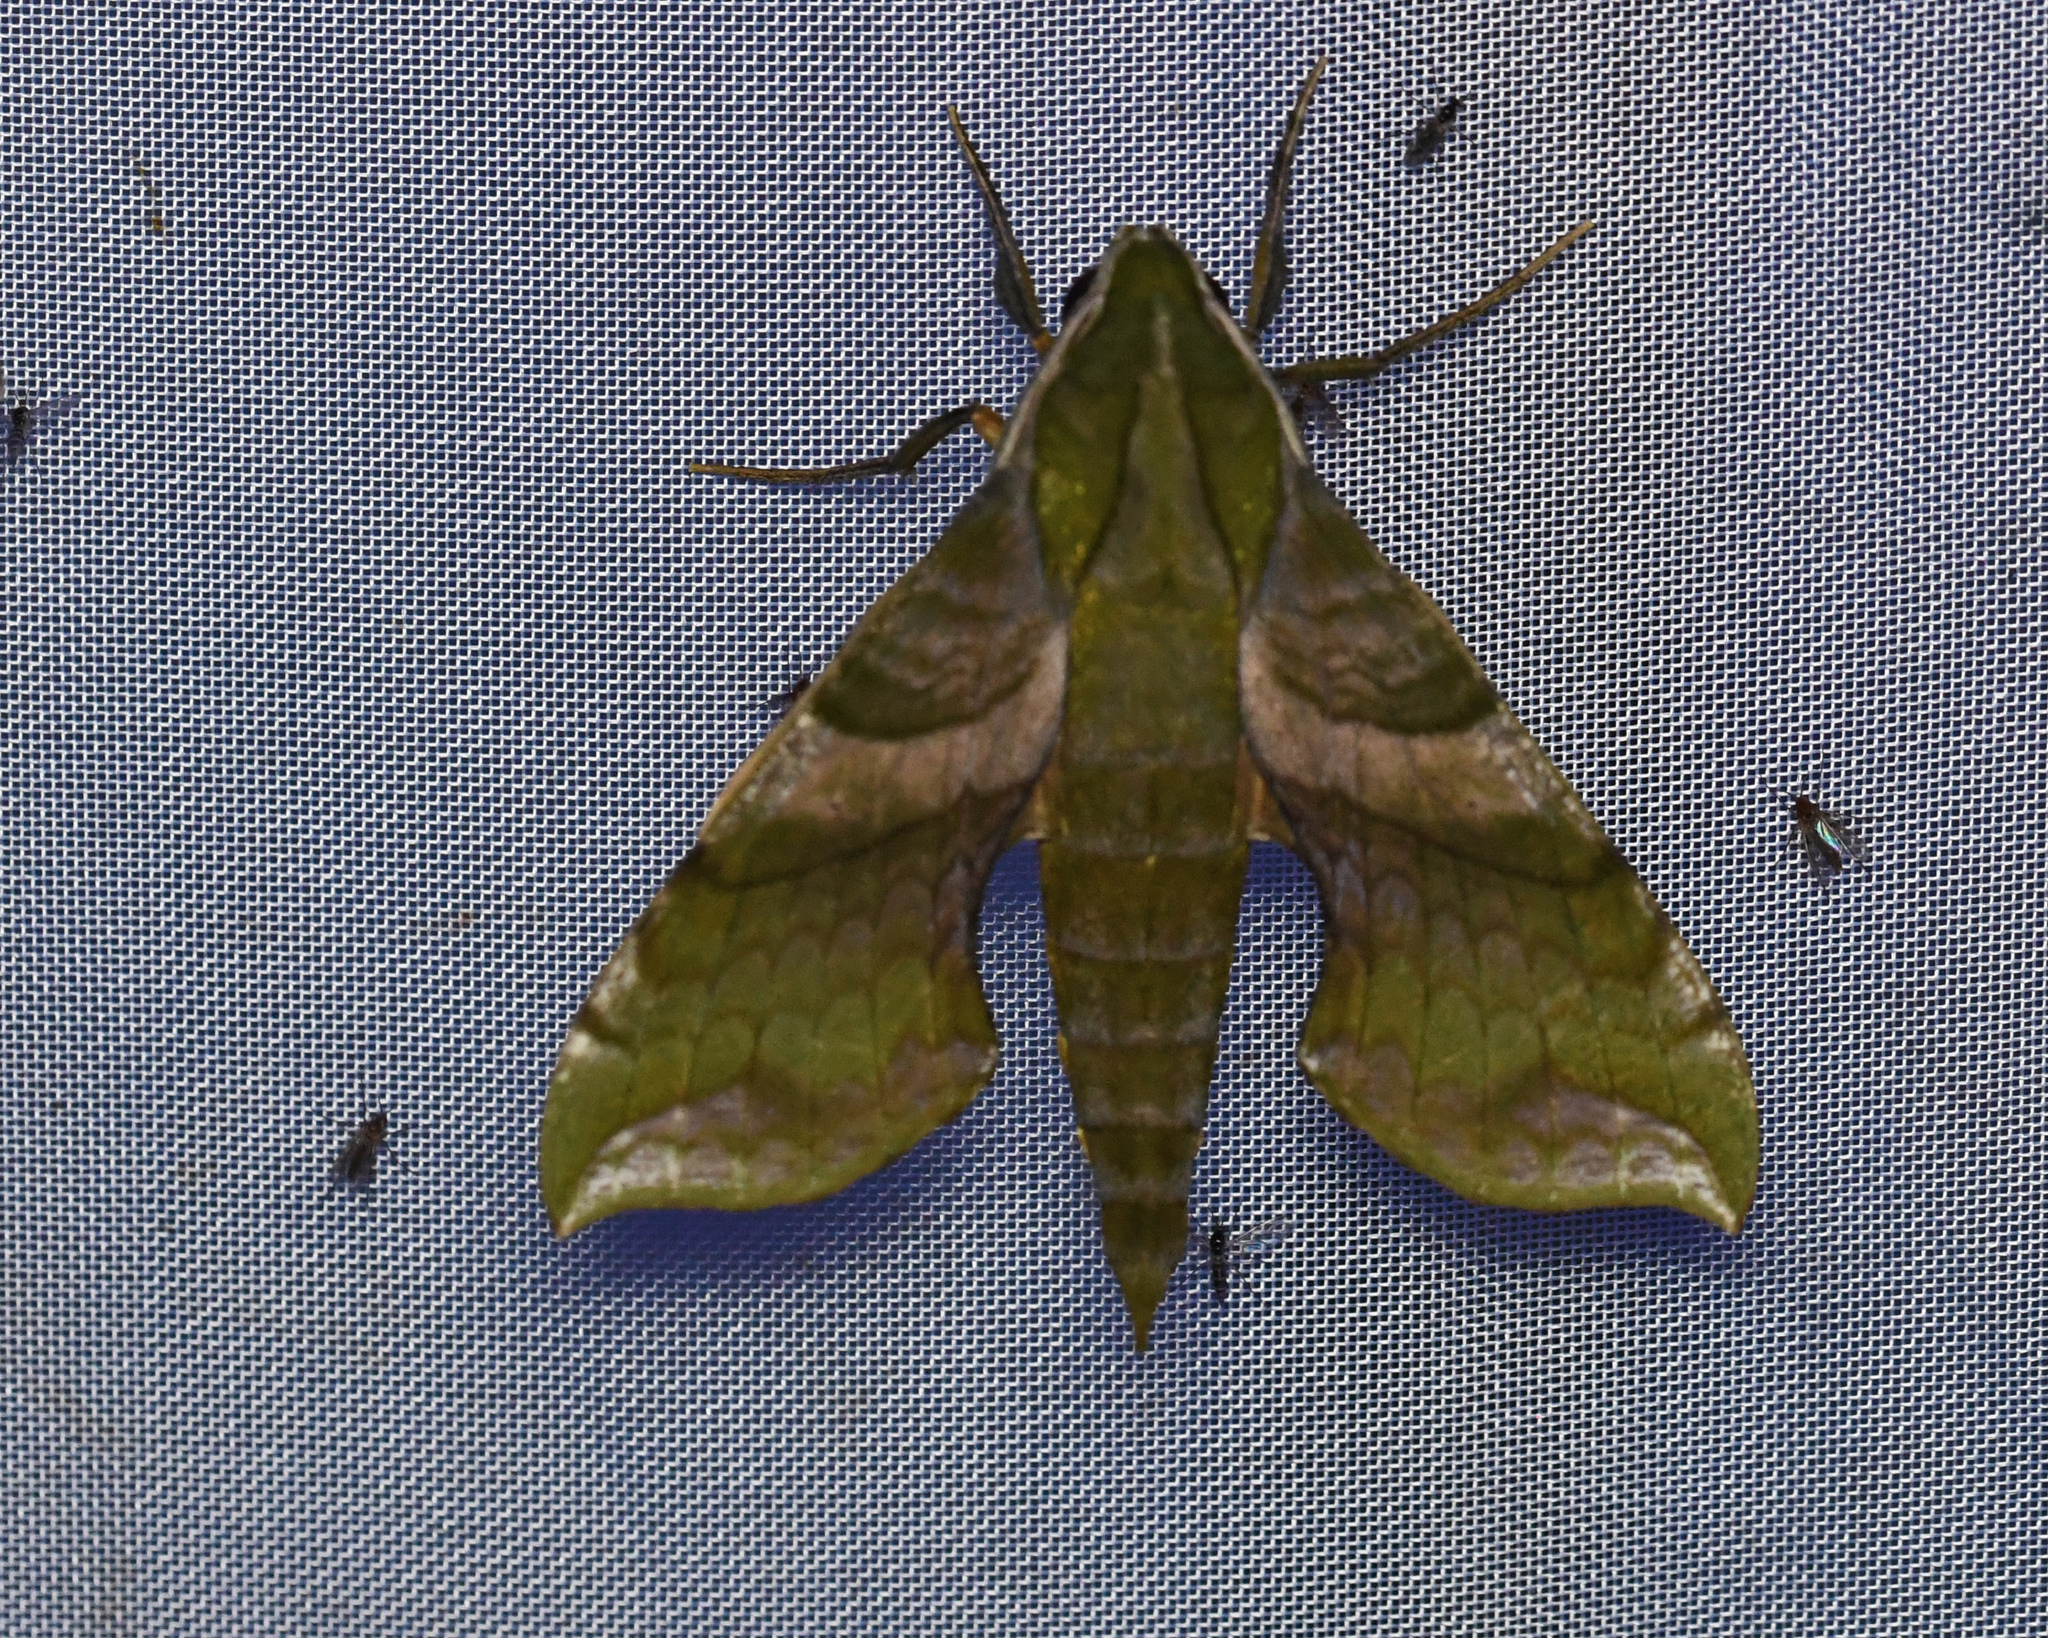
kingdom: Animalia
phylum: Arthropoda
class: Insecta
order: Lepidoptera
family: Sphingidae
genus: Xylophanes
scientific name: Xylophanes pluto
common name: Pluto sphinx
